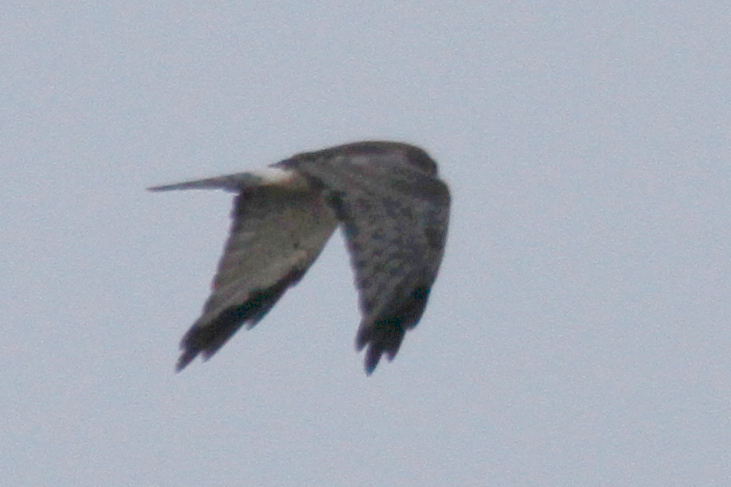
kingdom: Animalia
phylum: Chordata
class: Aves
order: Accipitriformes
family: Accipitridae
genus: Circus
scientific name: Circus cyaneus
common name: Hen harrier
